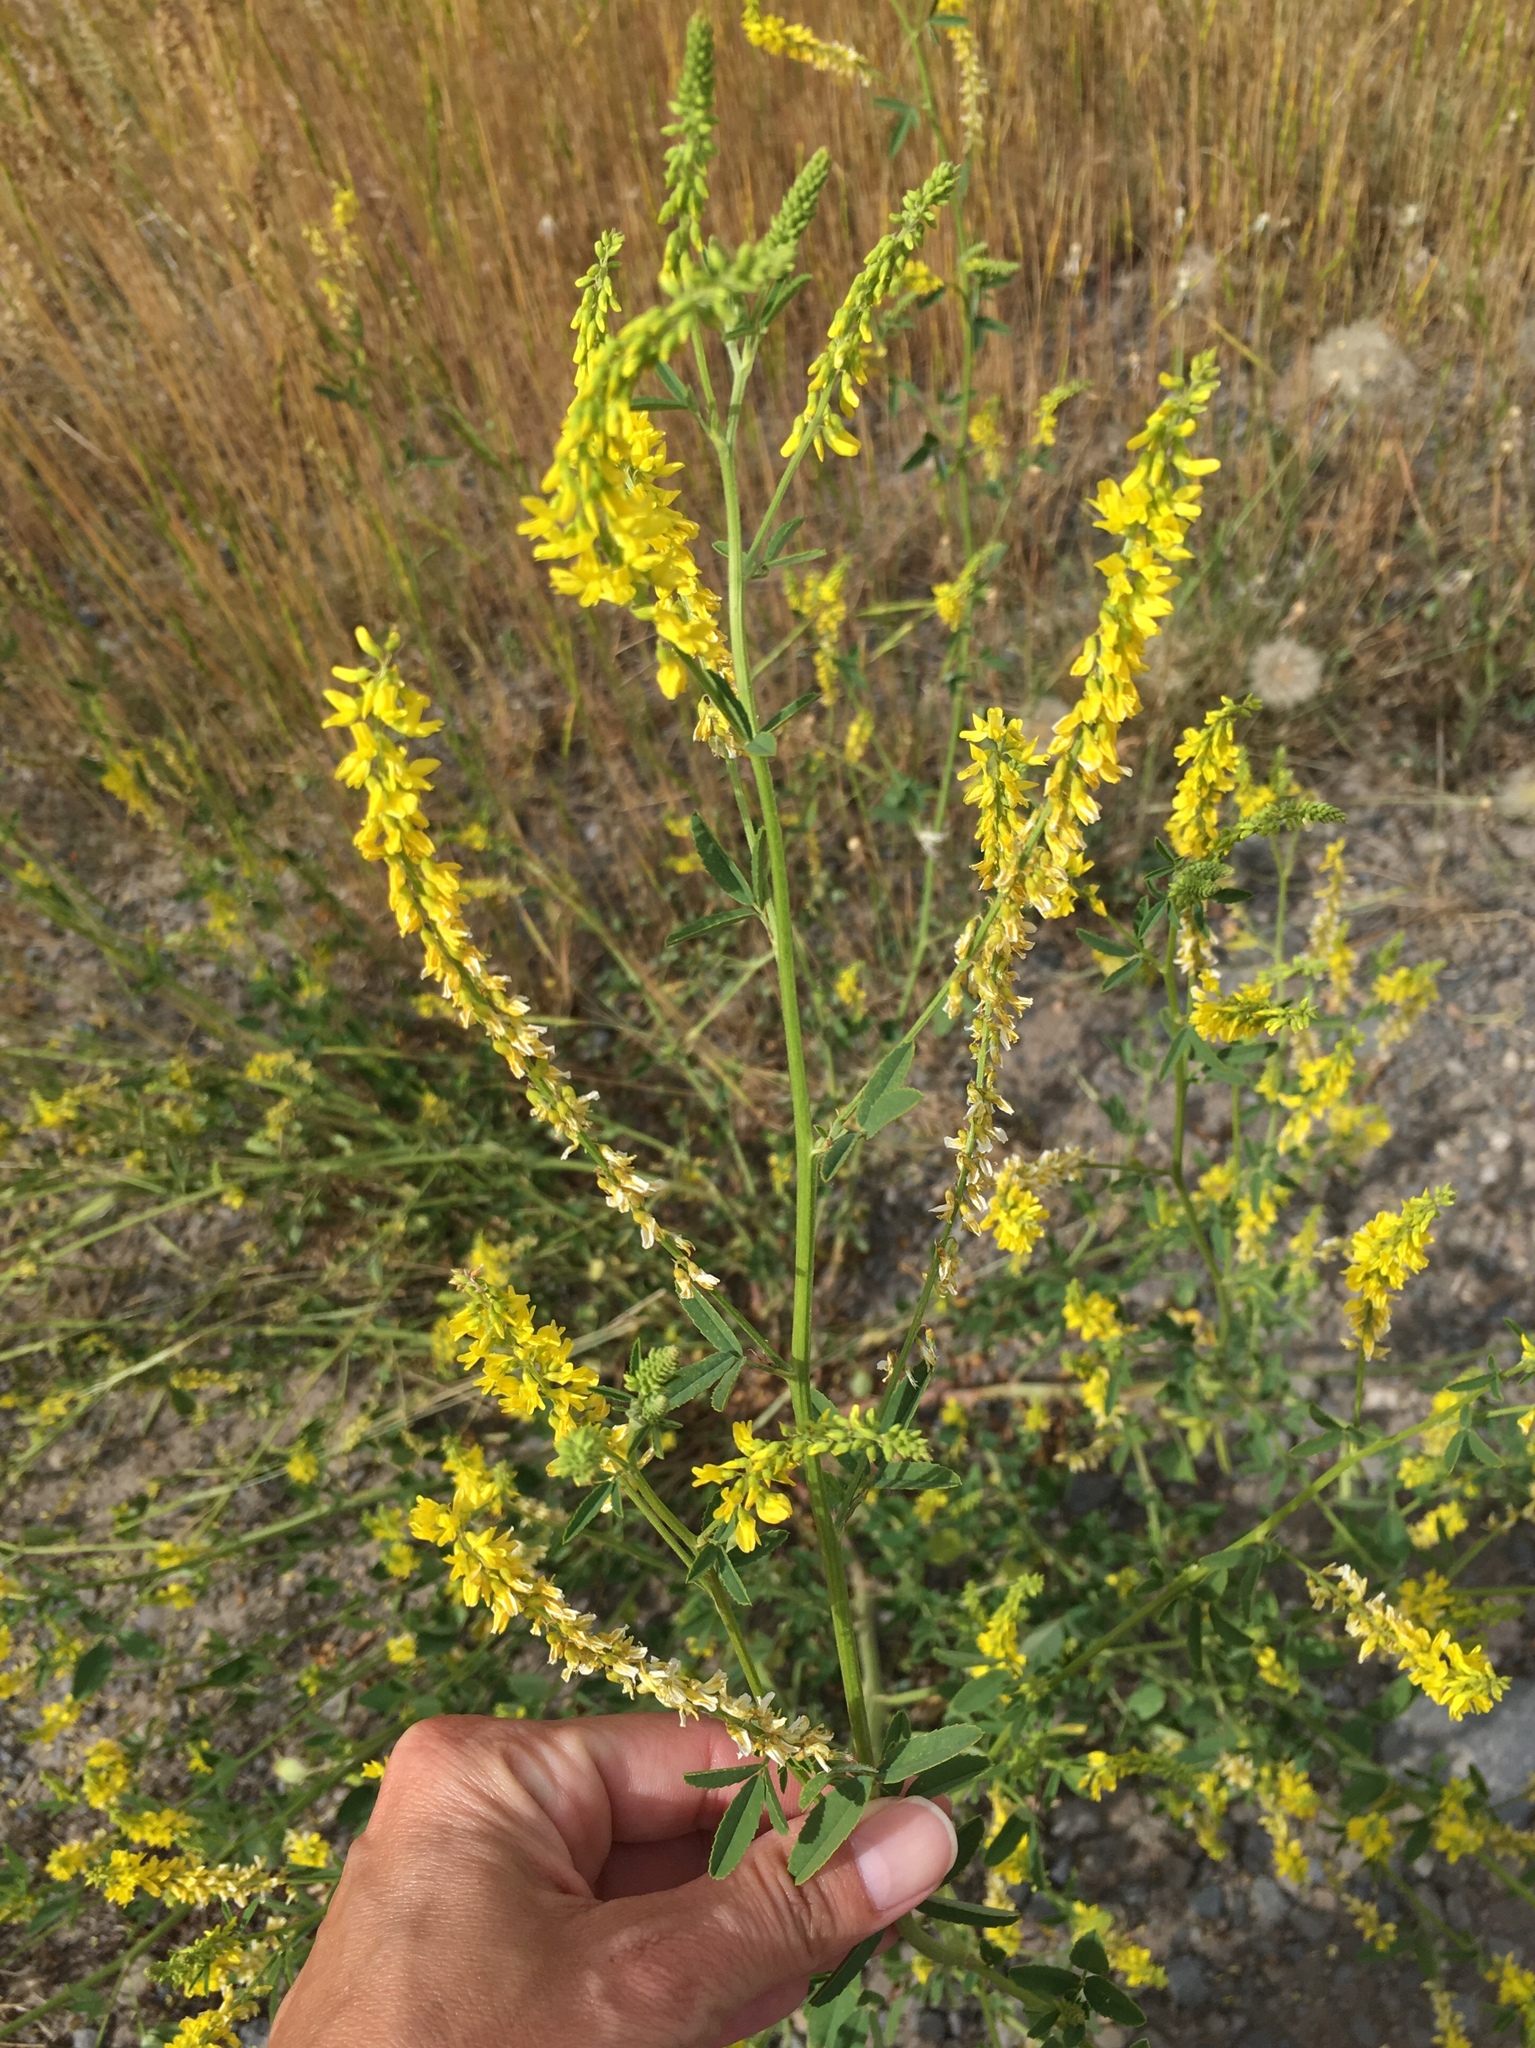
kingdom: Plantae
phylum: Tracheophyta
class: Magnoliopsida
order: Fabales
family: Fabaceae
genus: Melilotus
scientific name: Melilotus officinalis
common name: Sweetclover
